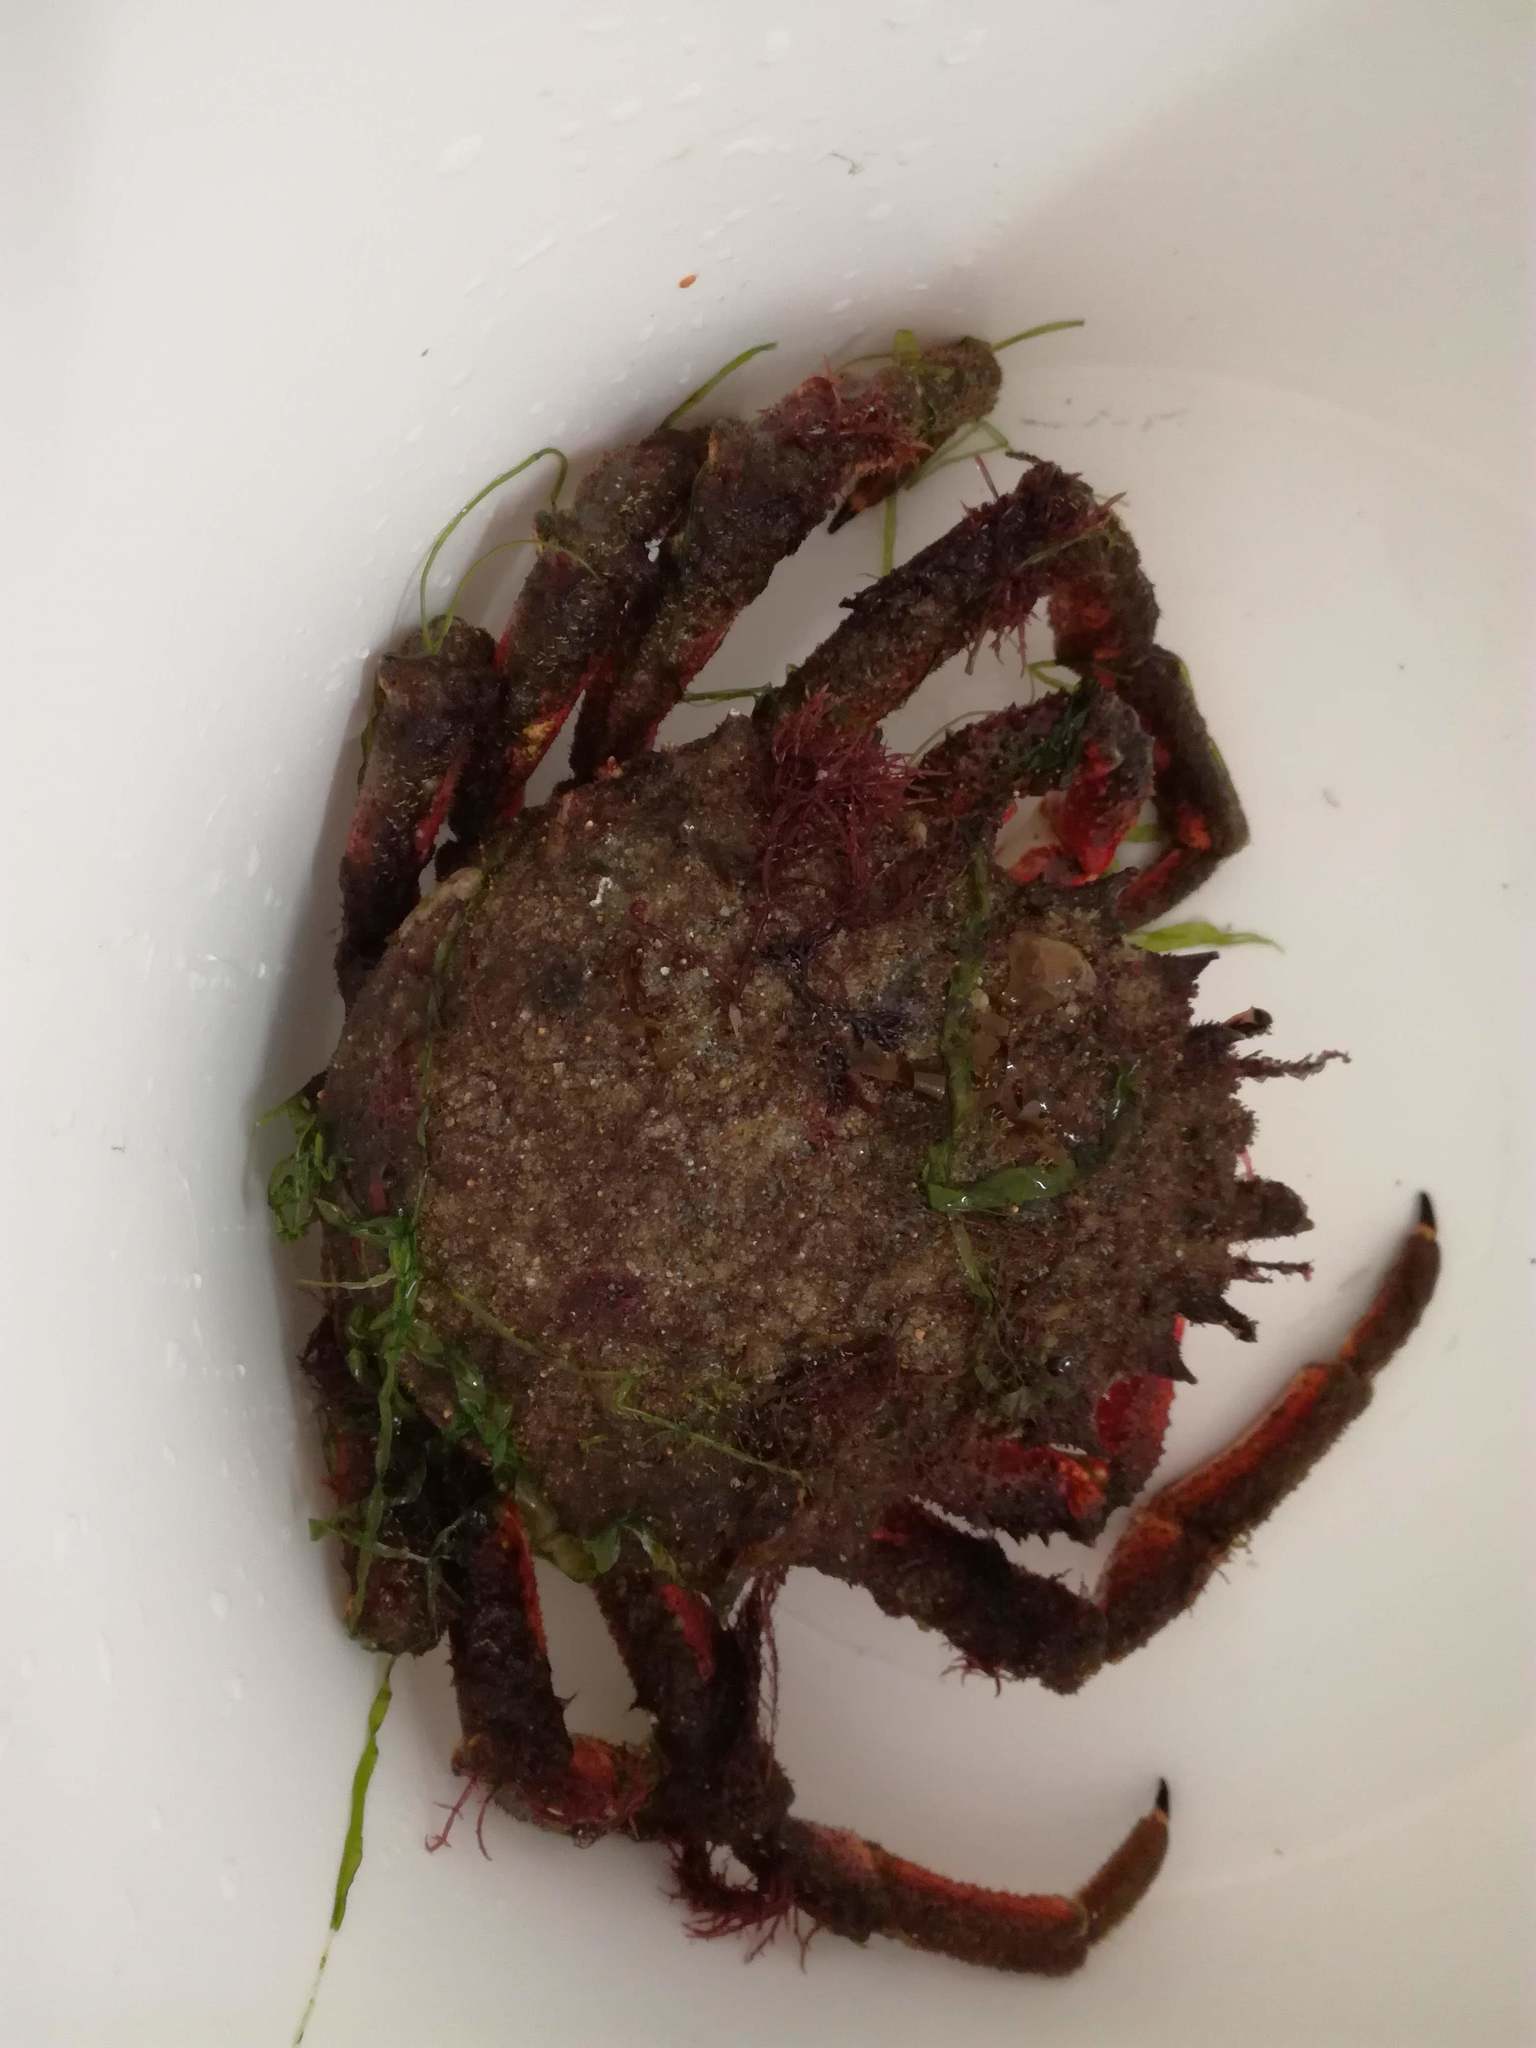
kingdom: Animalia
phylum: Arthropoda
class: Malacostraca
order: Decapoda
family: Majidae
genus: Maja
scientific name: Maja brachydactyla
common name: Common spider crab
